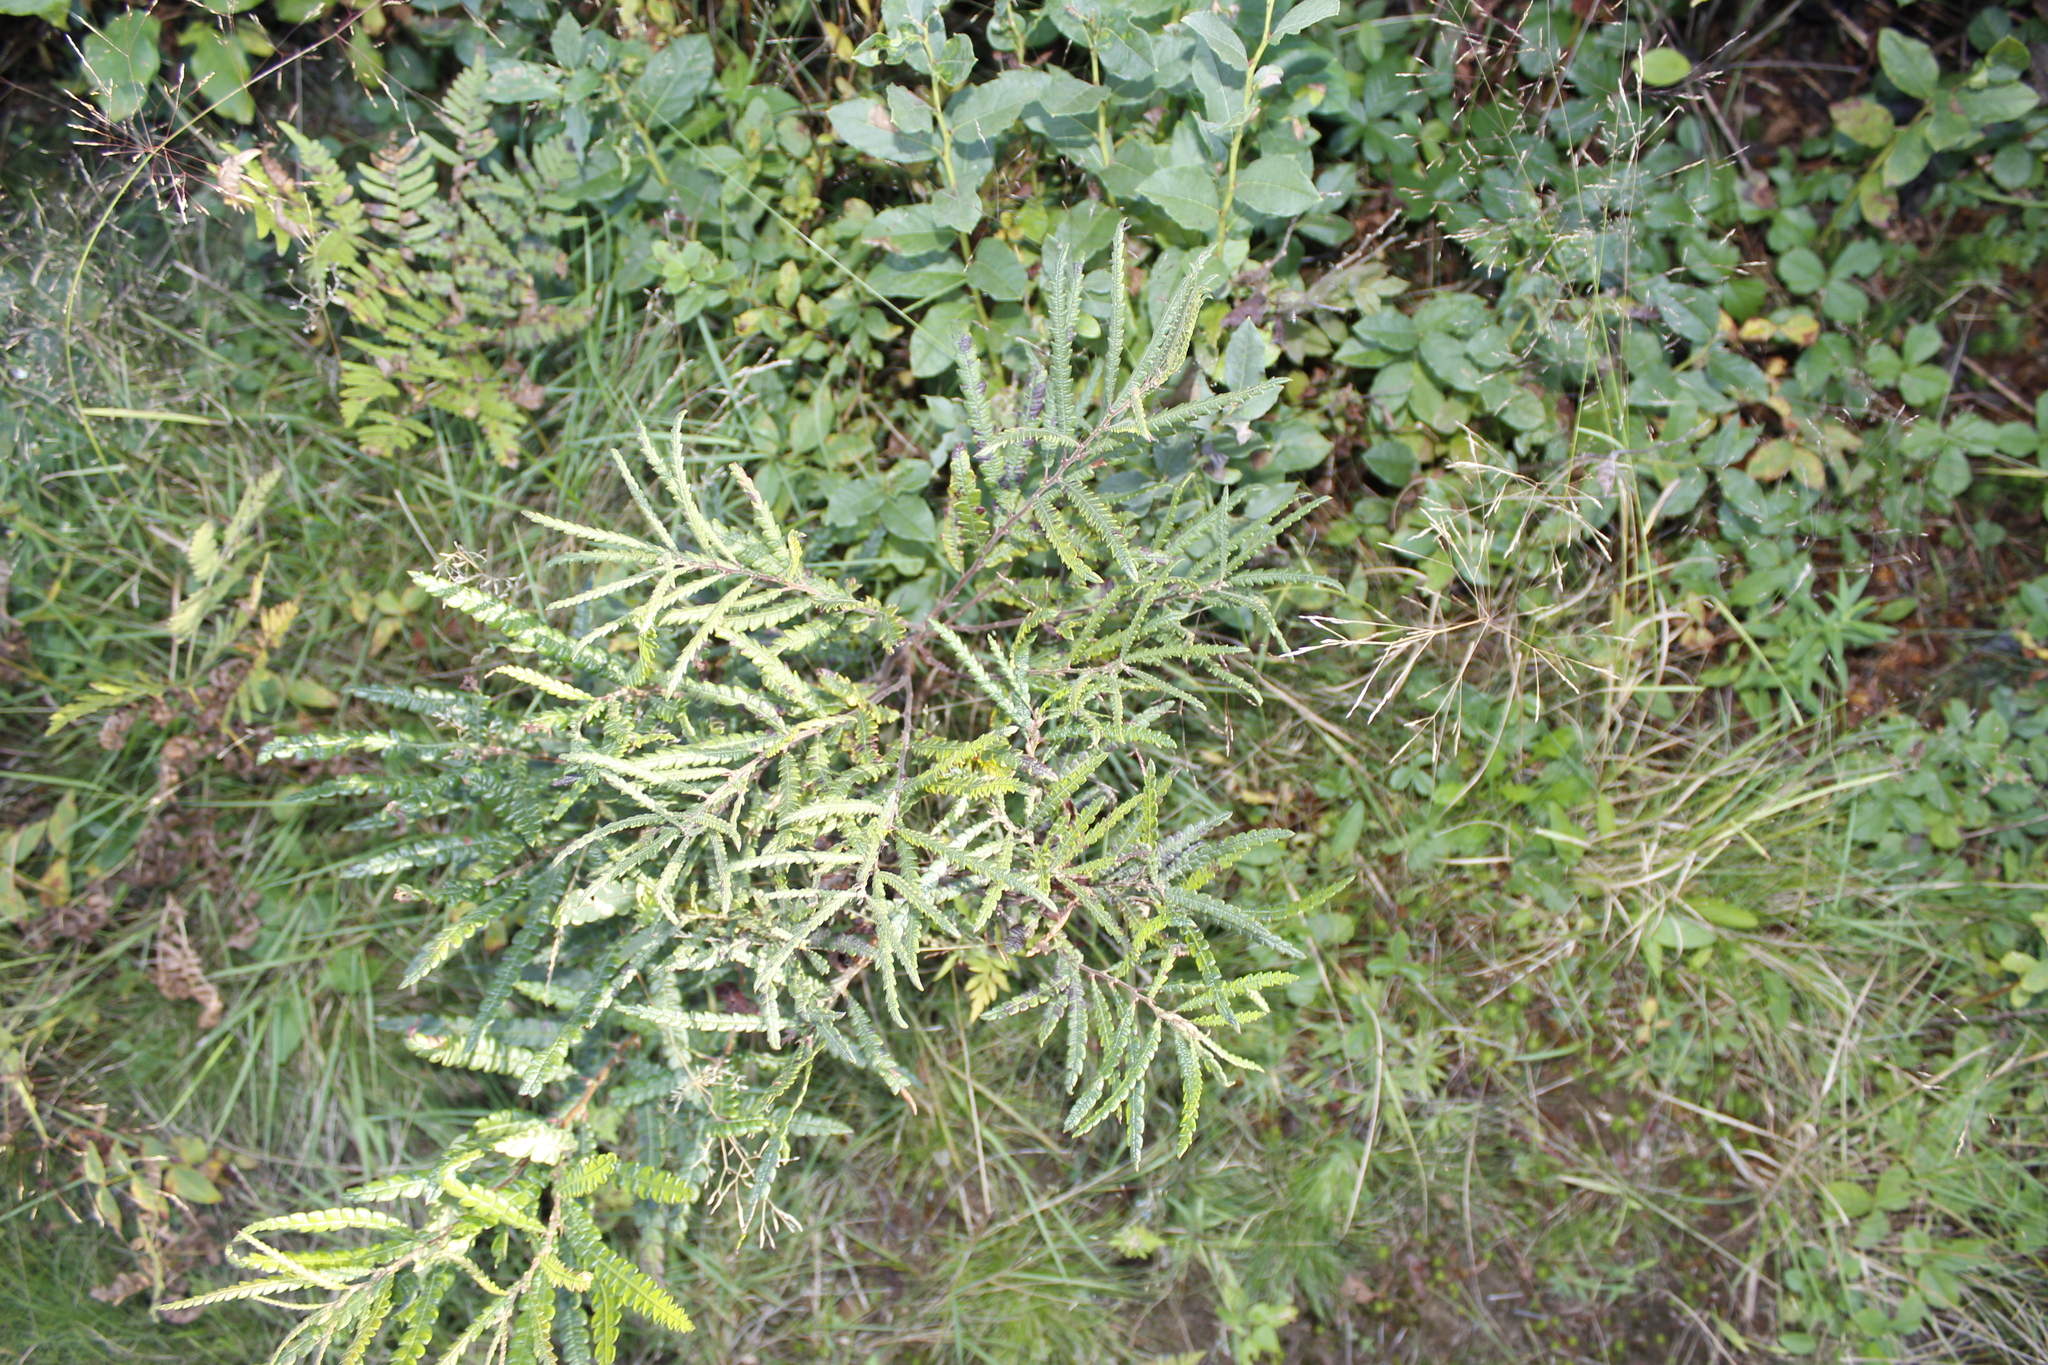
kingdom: Plantae
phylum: Tracheophyta
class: Magnoliopsida
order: Fagales
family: Myricaceae
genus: Comptonia
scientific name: Comptonia peregrina
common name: Sweet-fern
